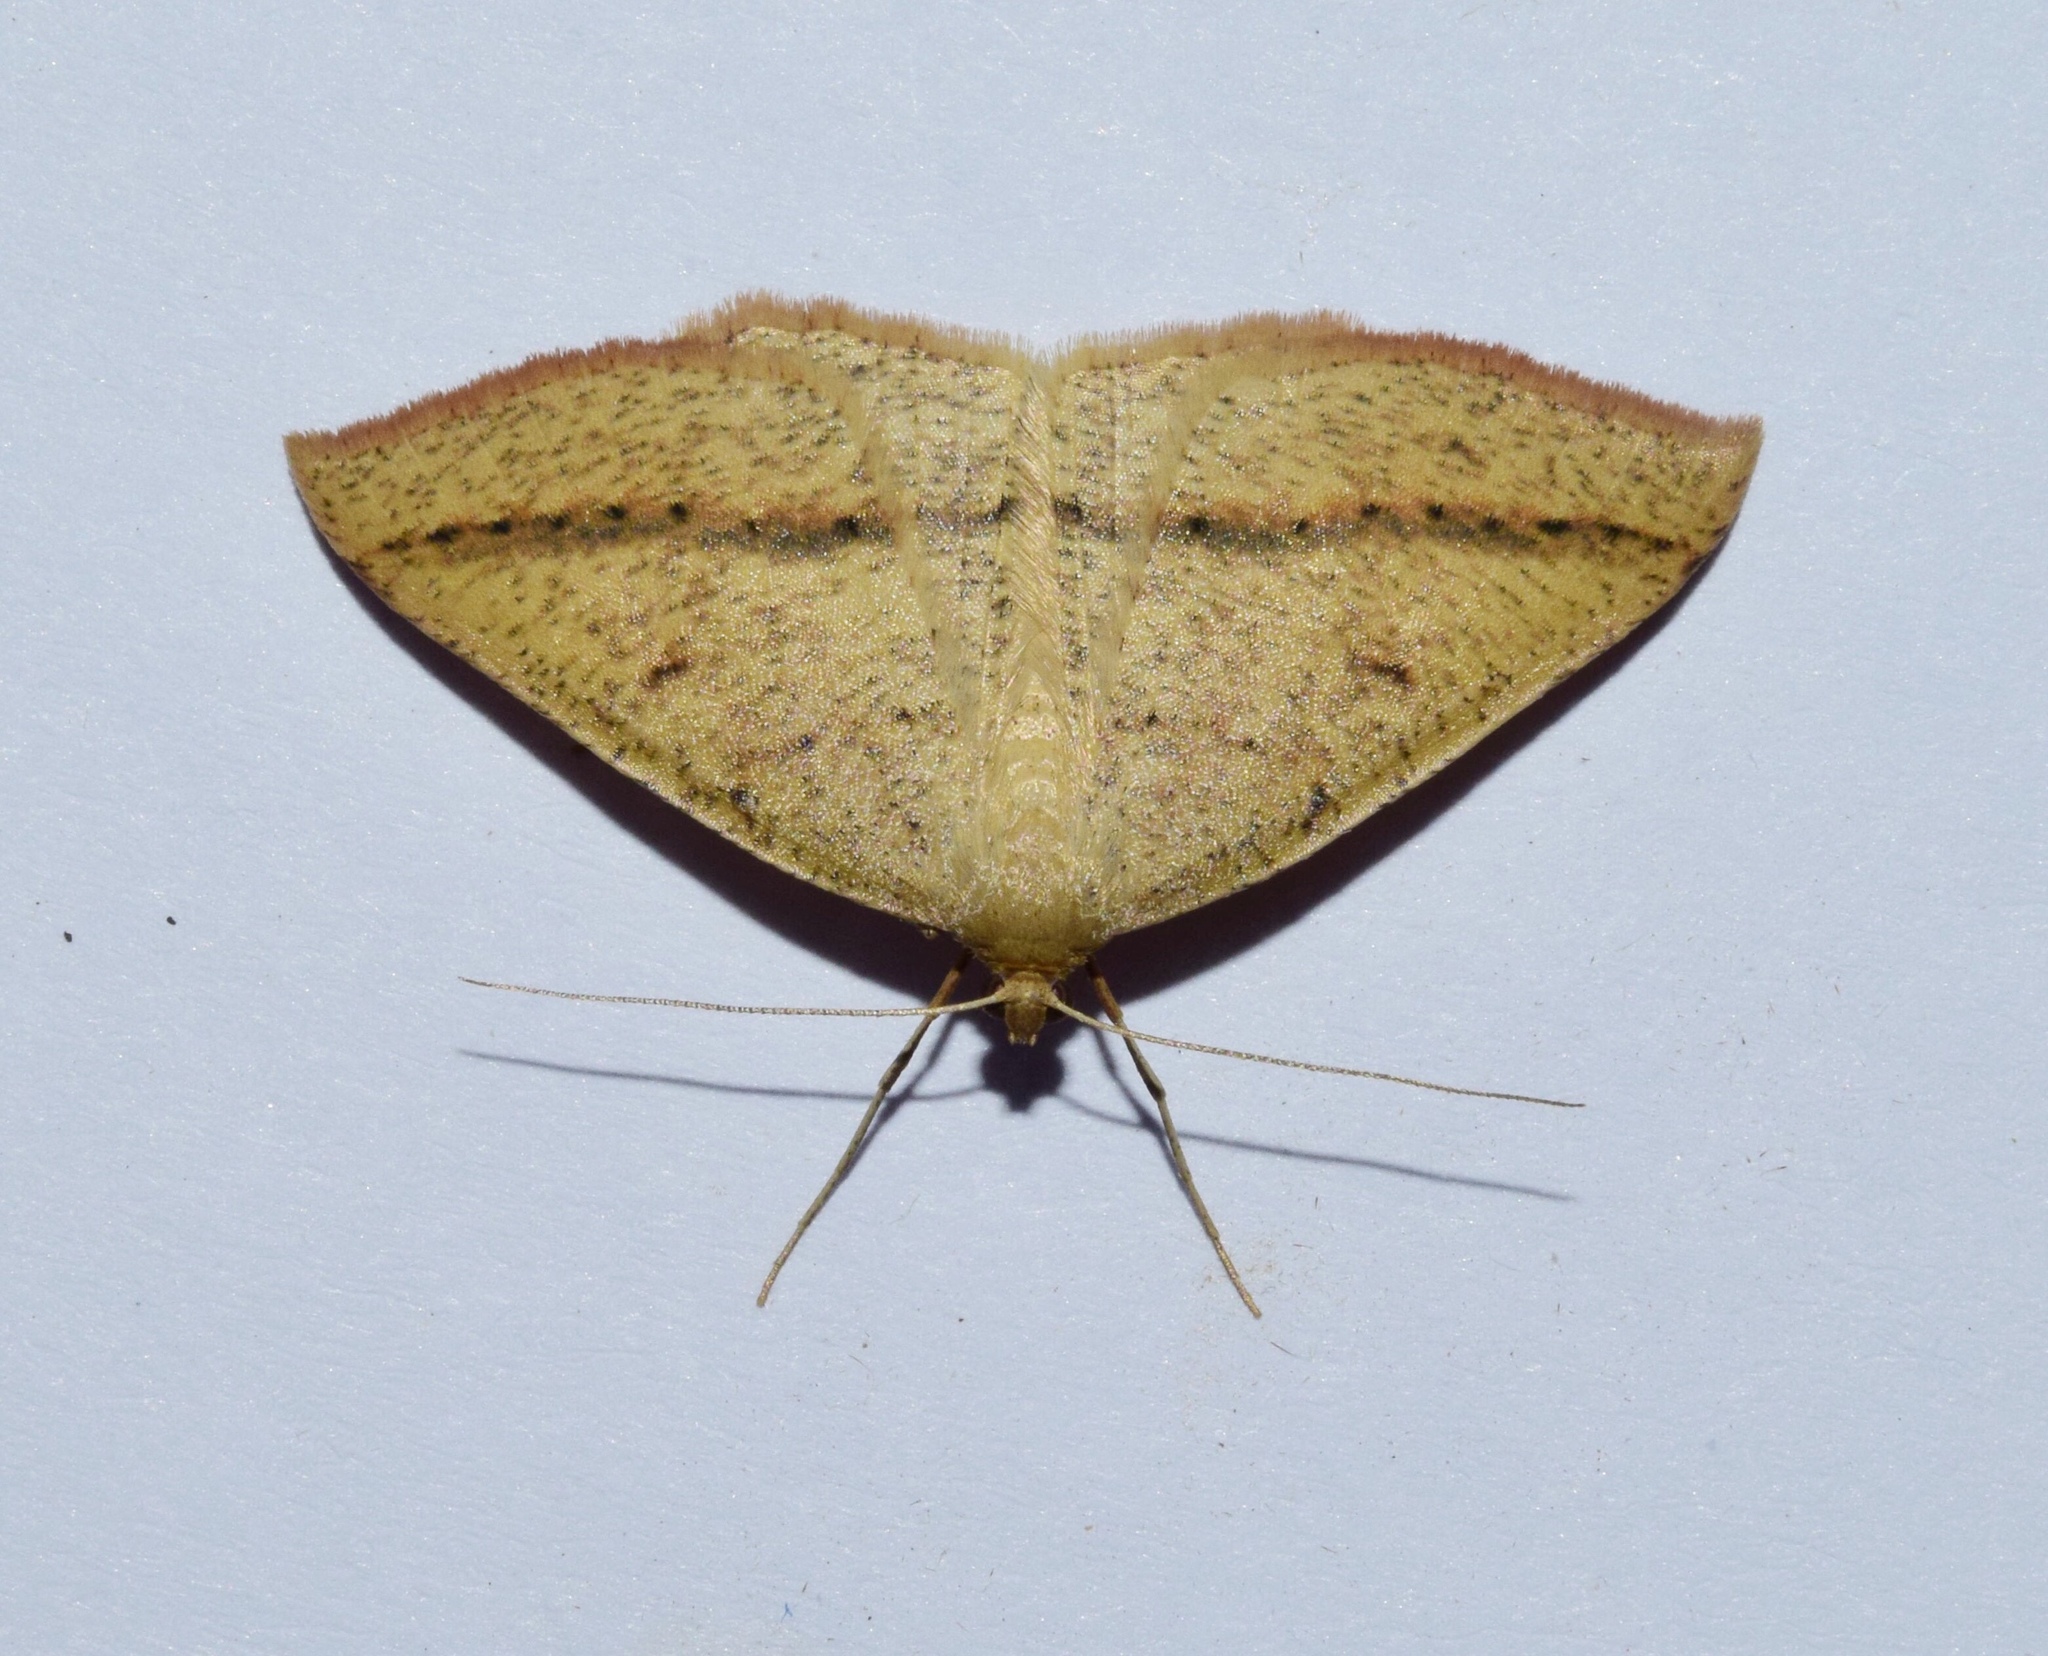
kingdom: Animalia
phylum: Arthropoda
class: Insecta
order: Lepidoptera
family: Geometridae
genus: Palaeaspilates
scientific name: Palaeaspilates inoffensa
